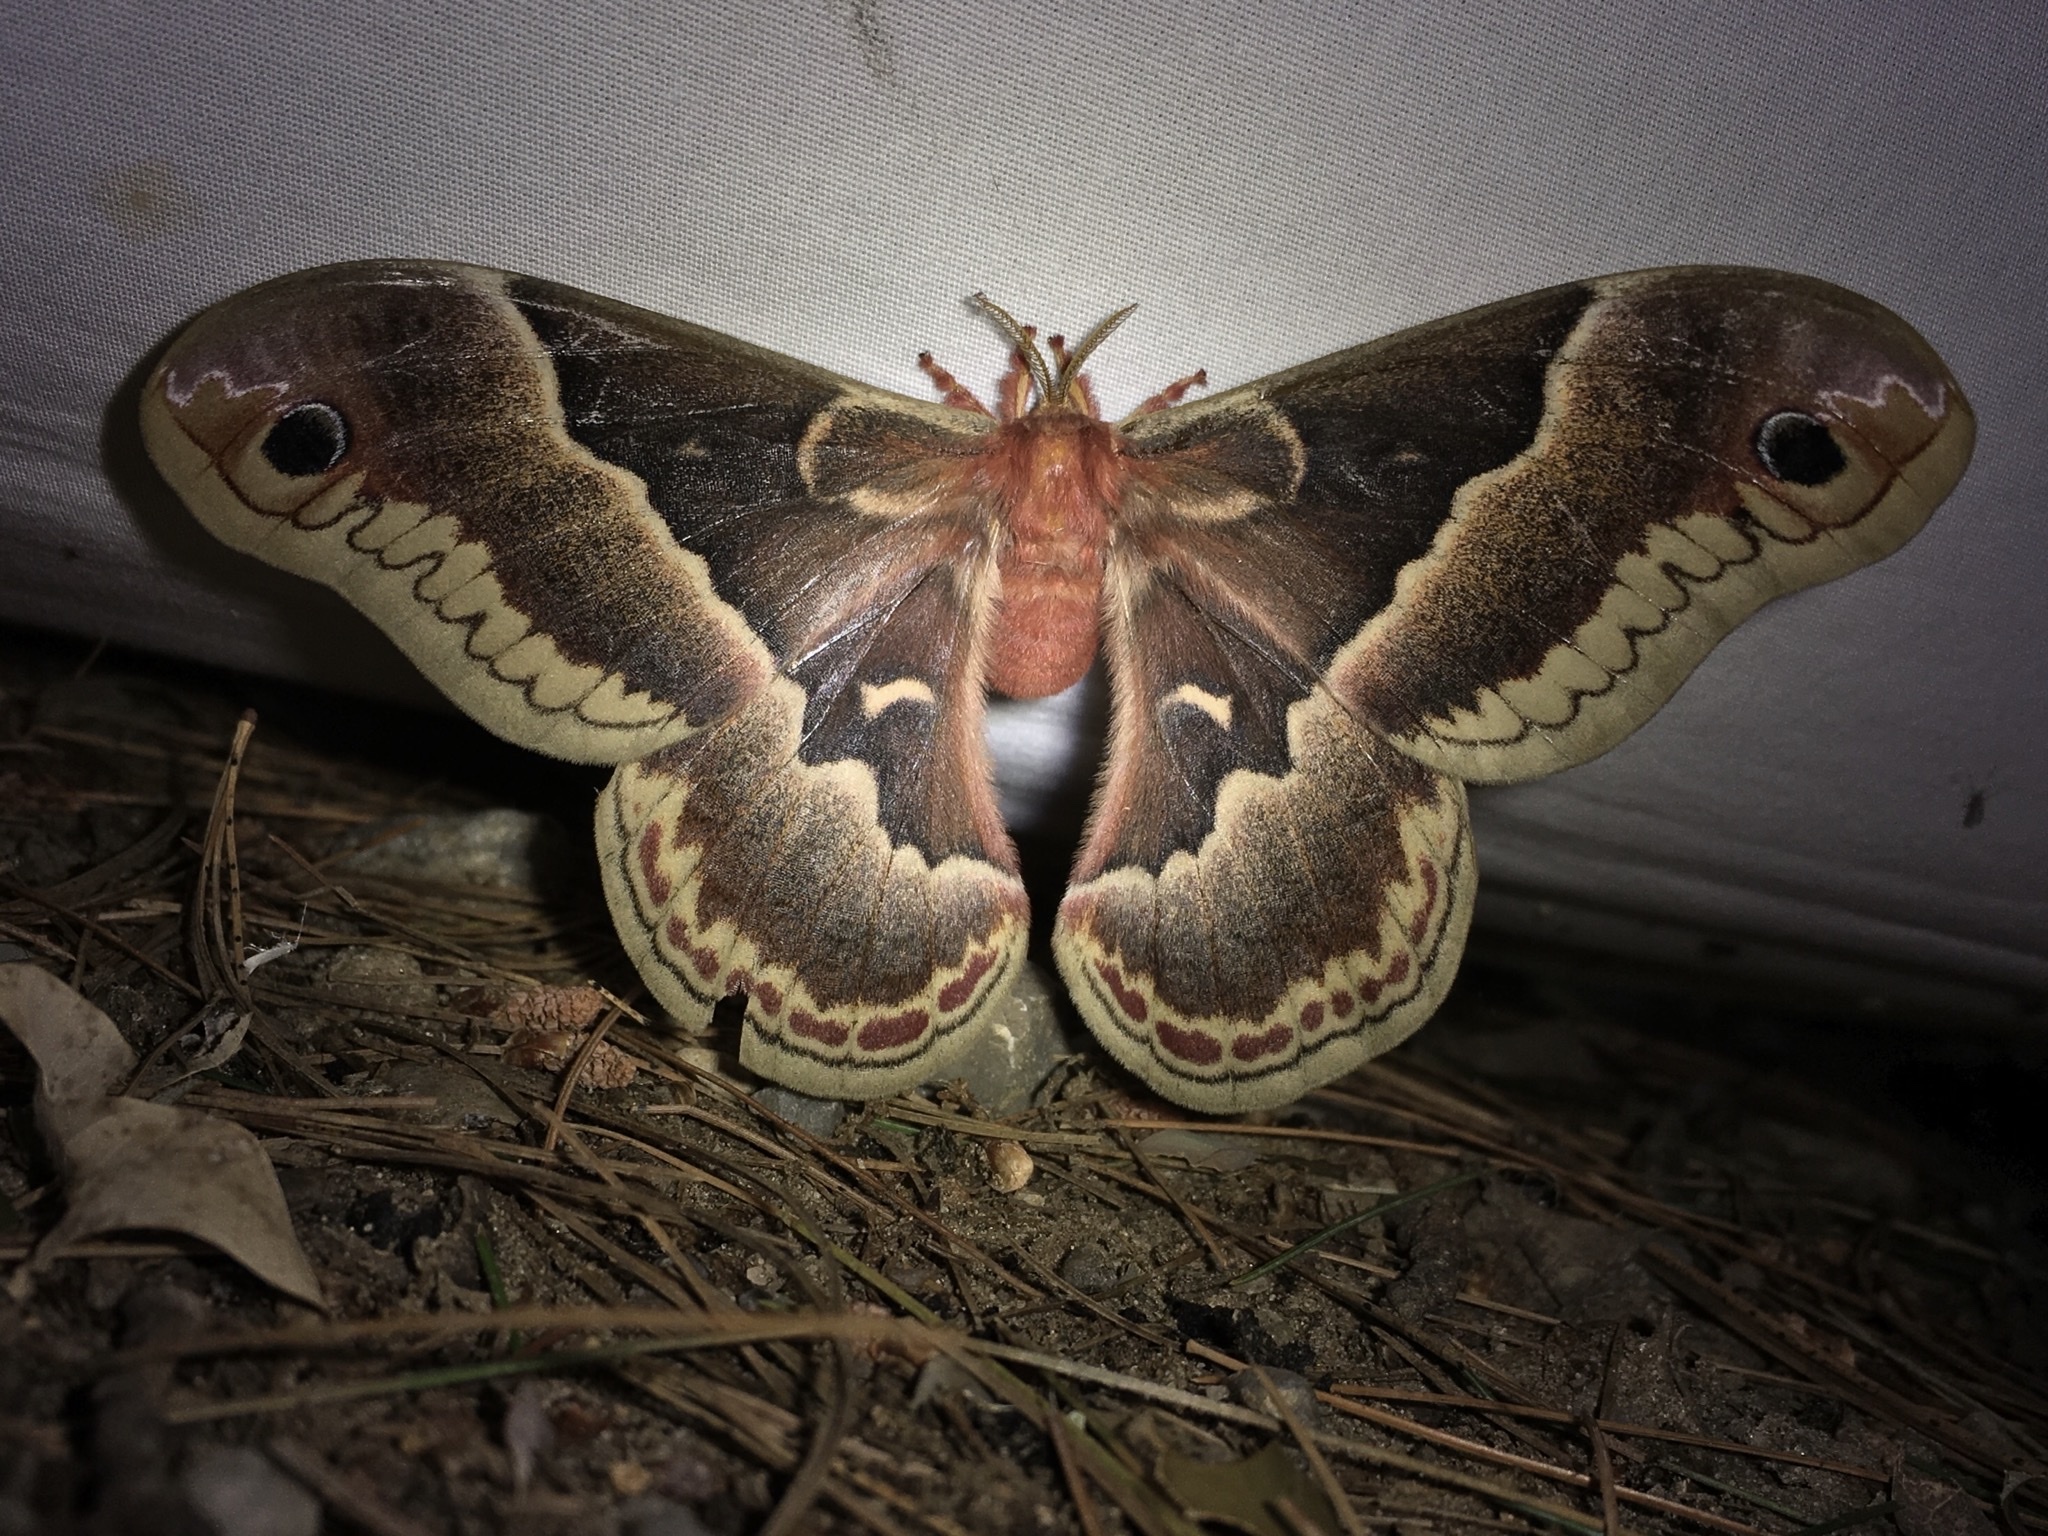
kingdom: Animalia
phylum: Arthropoda
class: Insecta
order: Lepidoptera
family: Saturniidae
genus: Callosamia
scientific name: Callosamia promethea
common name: Promethea silkmoth
